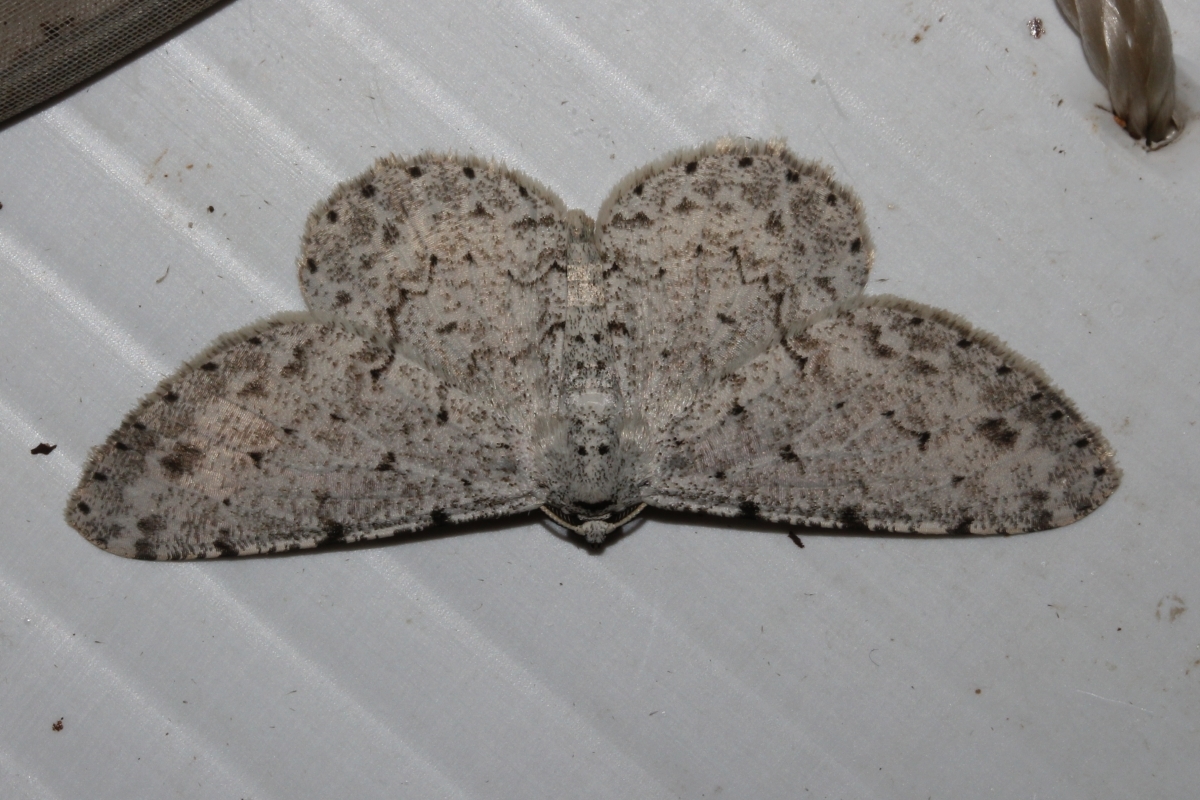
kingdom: Animalia
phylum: Arthropoda
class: Insecta
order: Lepidoptera
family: Geometridae
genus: Glena
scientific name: Glena
